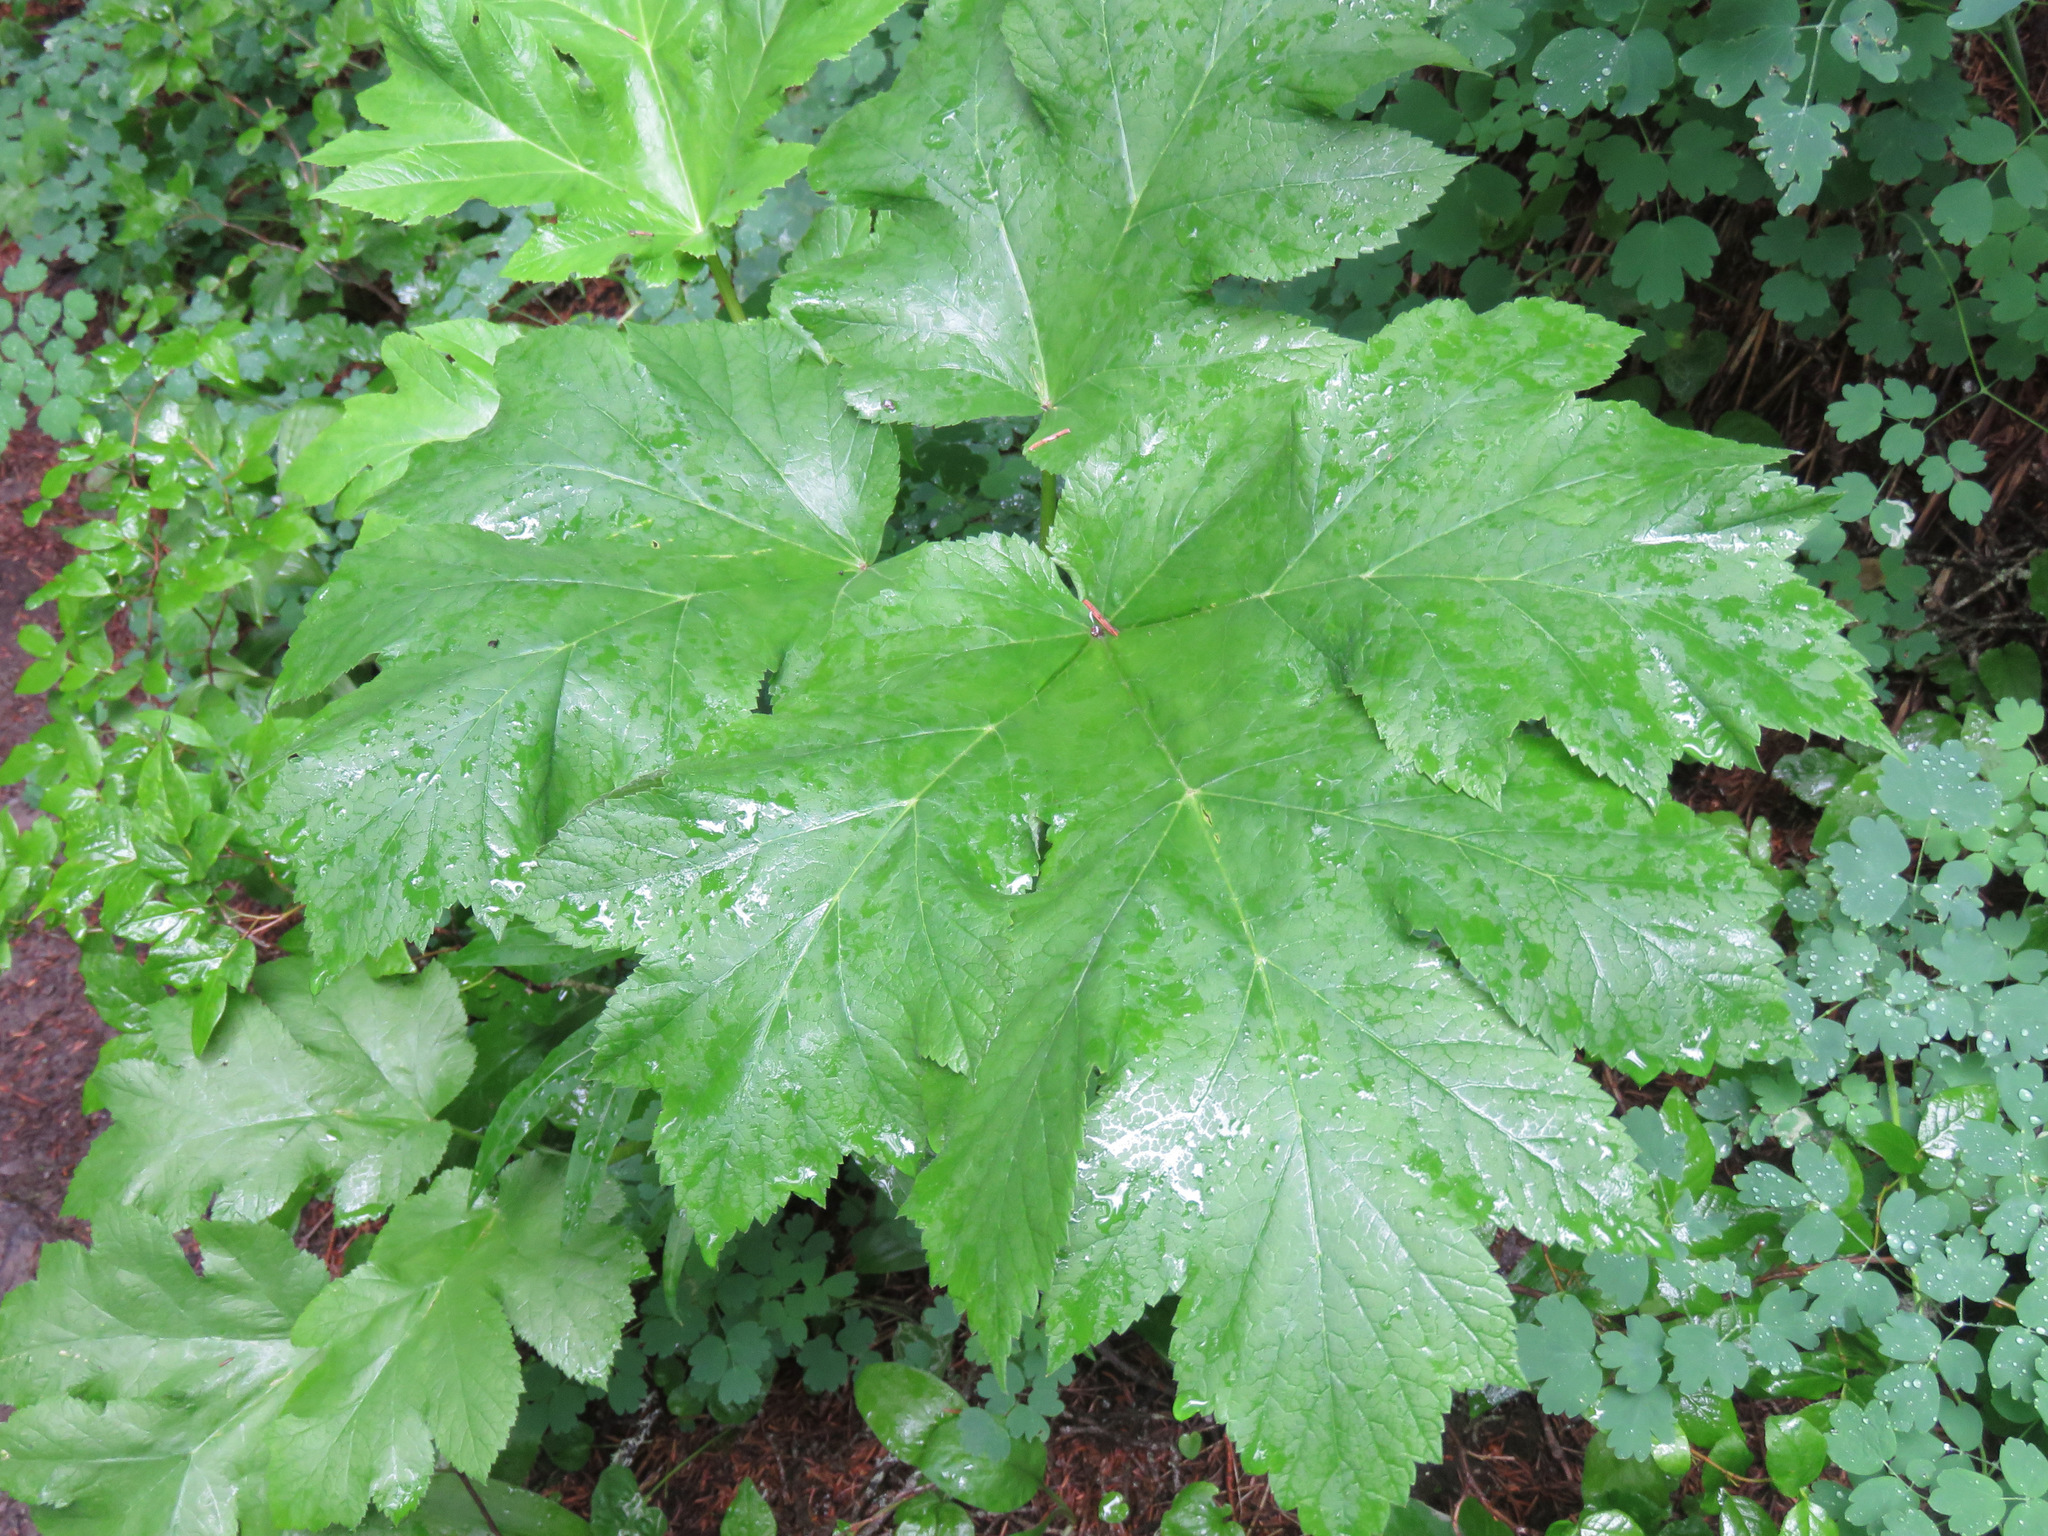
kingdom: Plantae
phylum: Tracheophyta
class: Magnoliopsida
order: Apiales
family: Apiaceae
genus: Heracleum
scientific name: Heracleum maximum
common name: American cow parsnip
